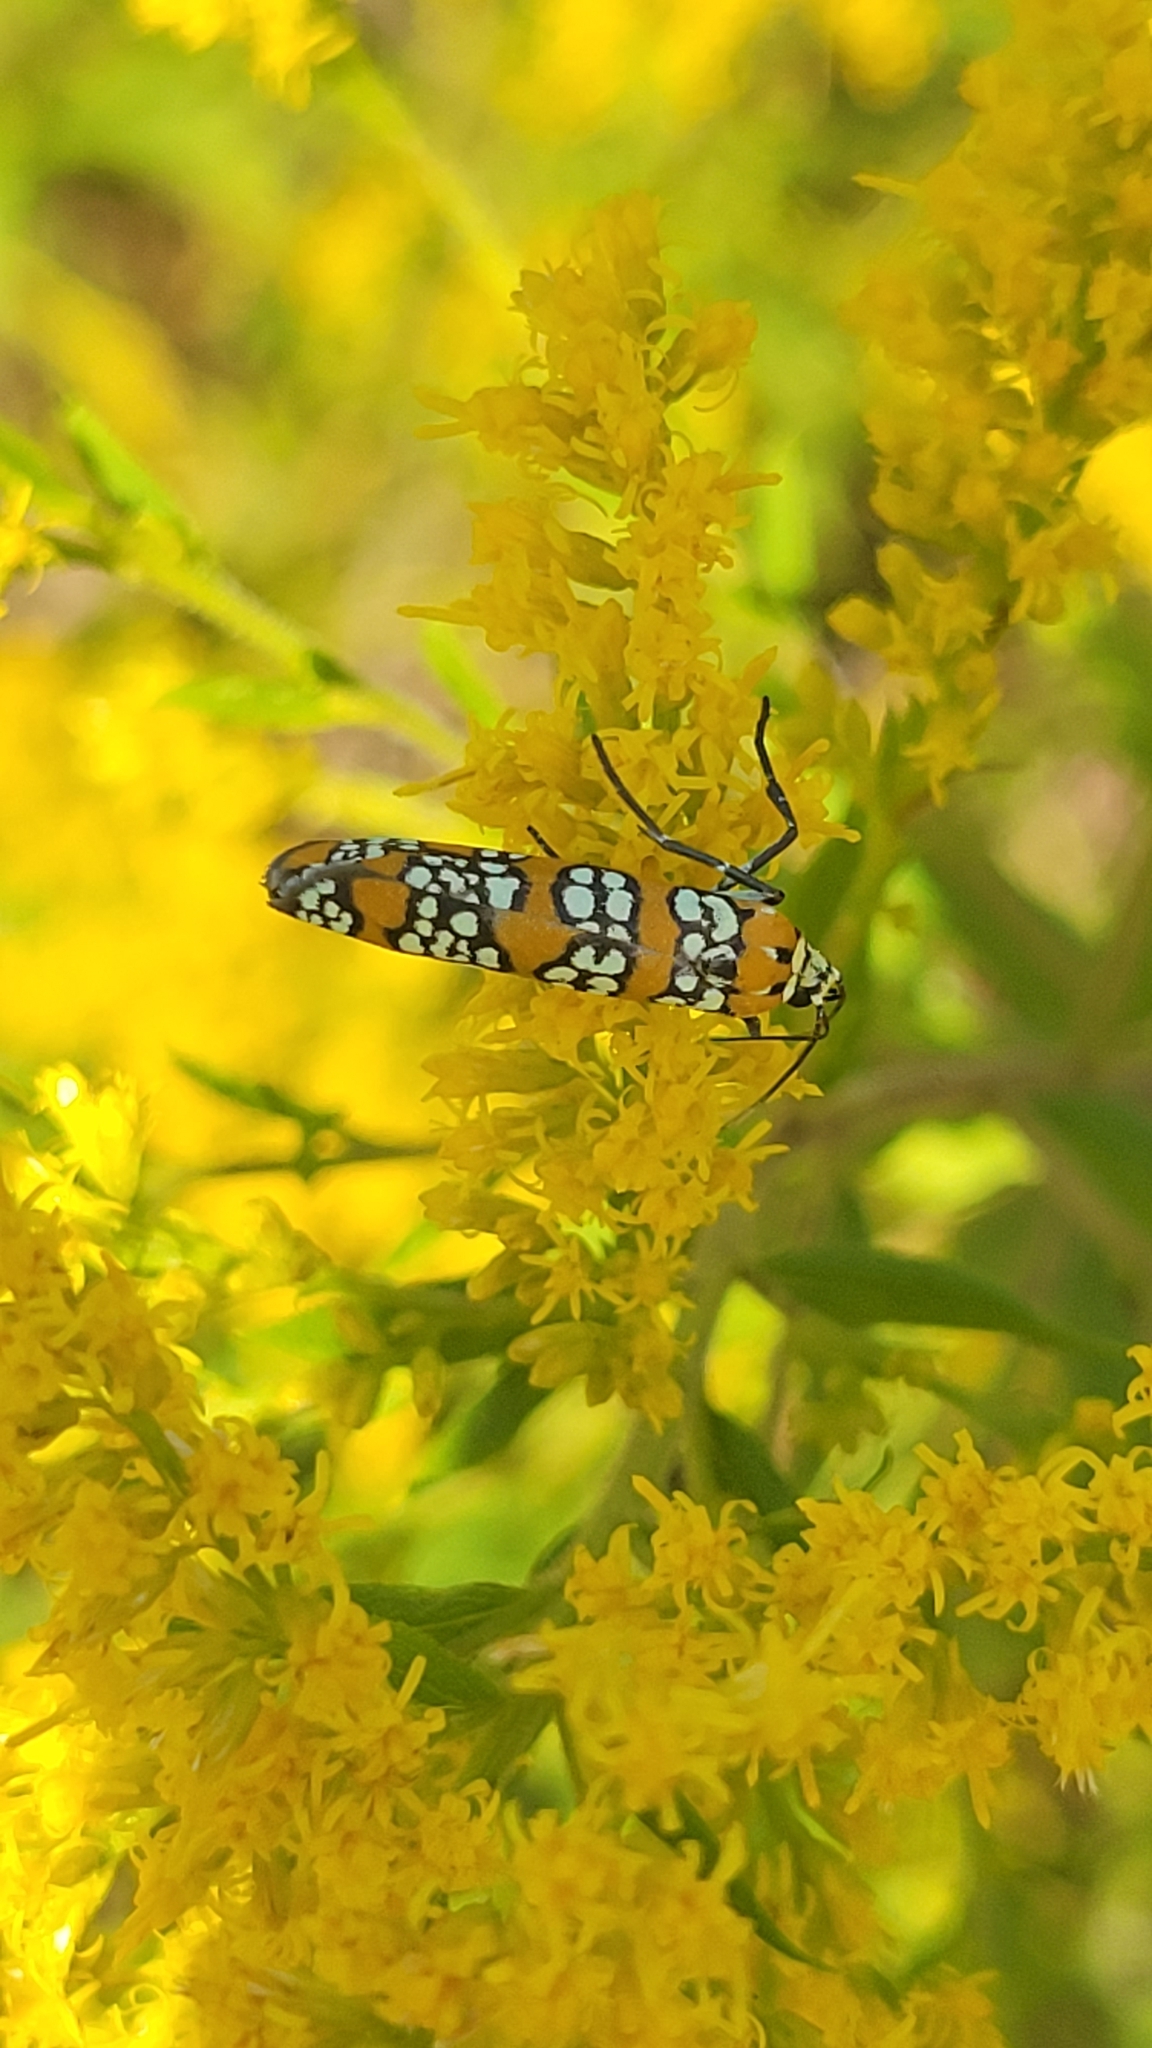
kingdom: Animalia
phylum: Arthropoda
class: Insecta
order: Lepidoptera
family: Attevidae
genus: Atteva
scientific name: Atteva punctella
